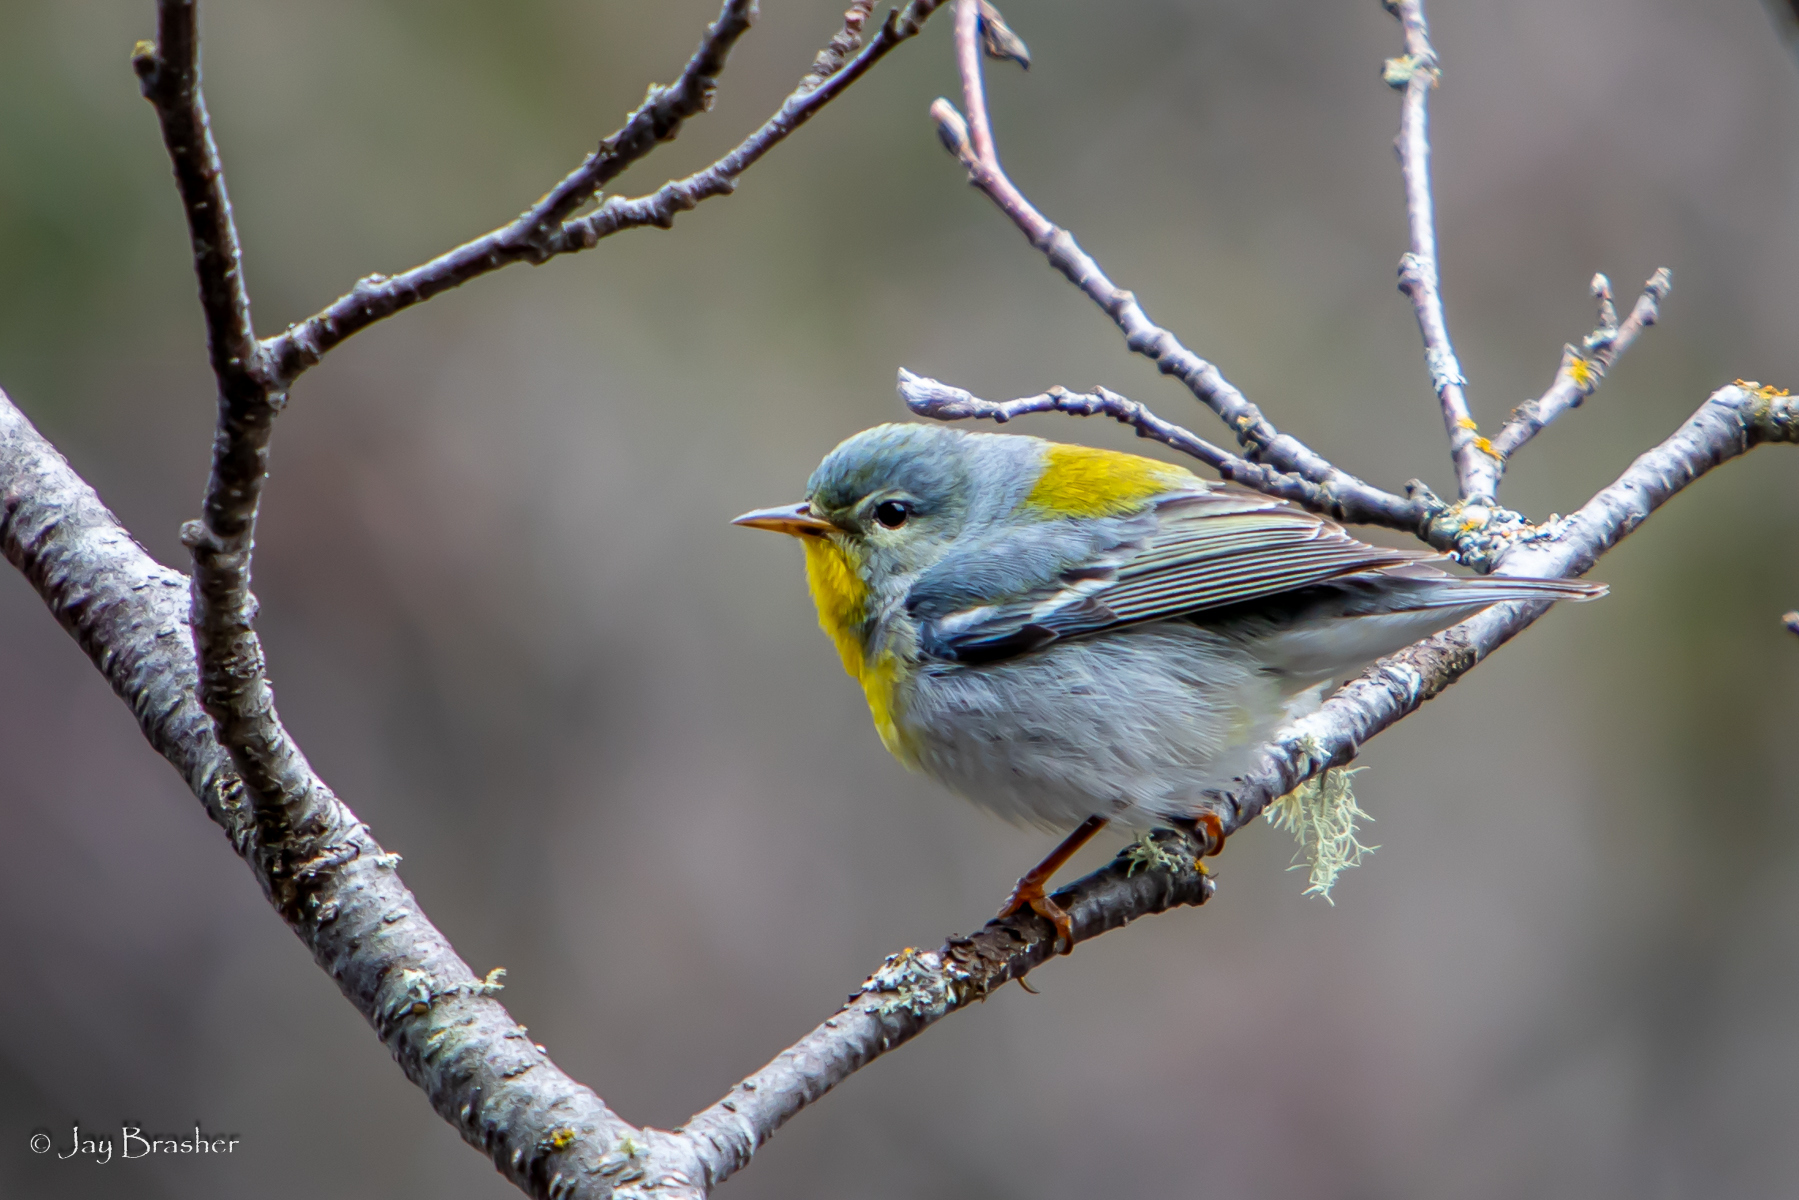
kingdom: Animalia
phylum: Chordata
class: Aves
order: Passeriformes
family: Parulidae
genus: Setophaga
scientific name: Setophaga americana
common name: Northern parula
